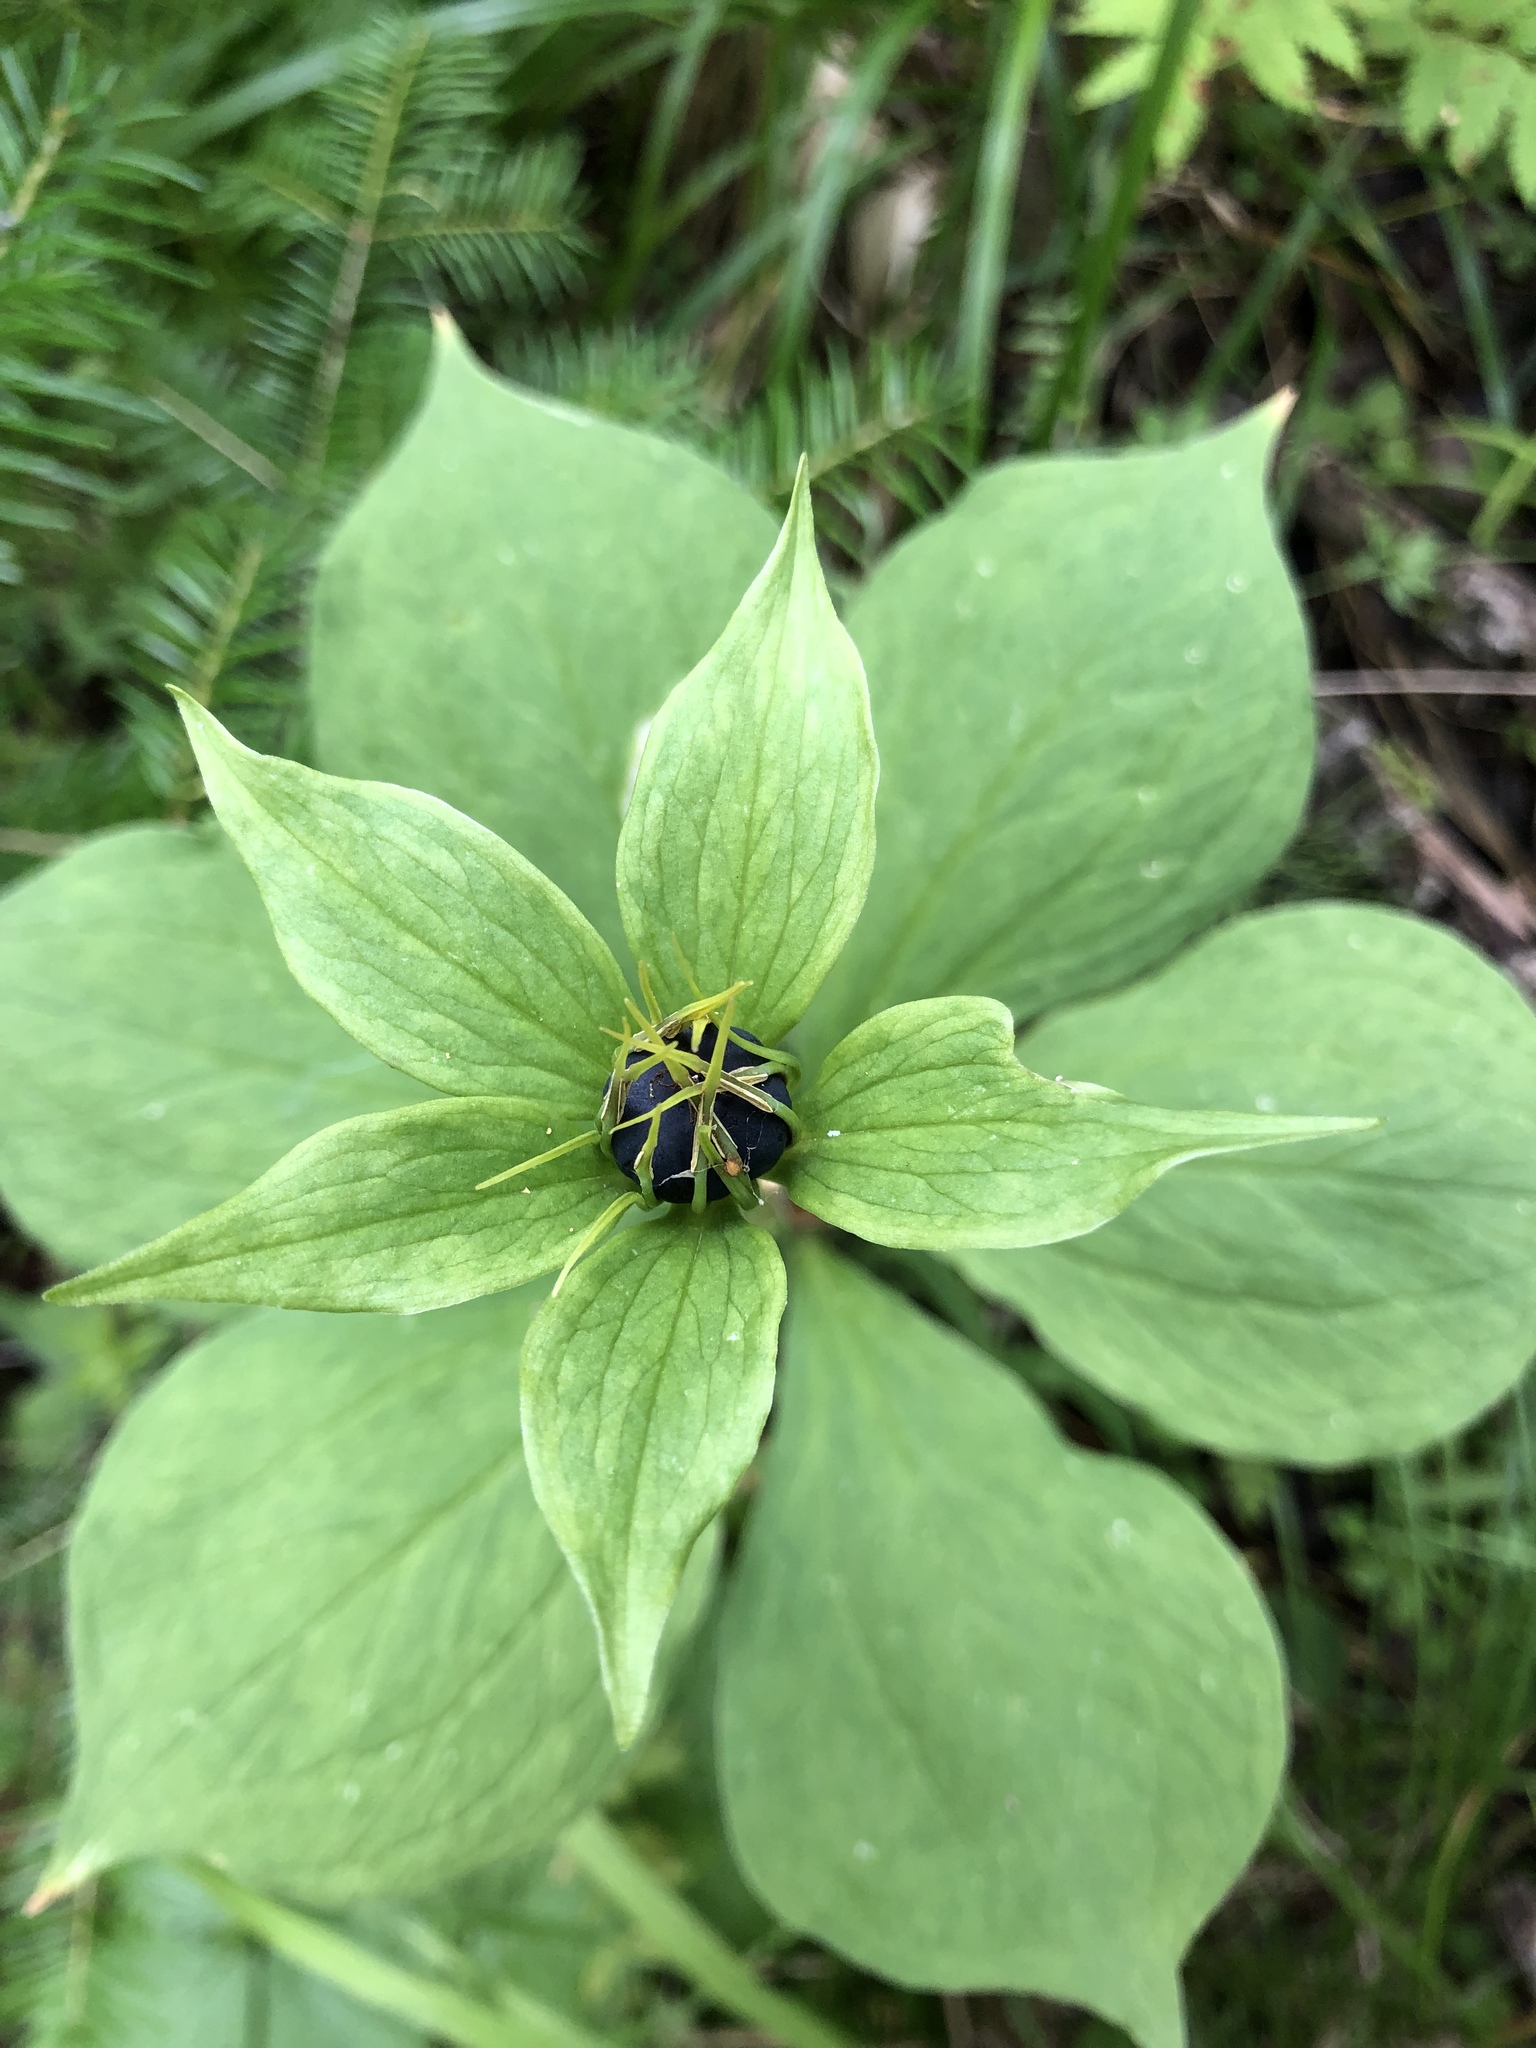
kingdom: Plantae
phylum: Tracheophyta
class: Liliopsida
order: Liliales
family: Melanthiaceae
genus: Paris
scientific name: Paris quadrifolia
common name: Herb-paris
